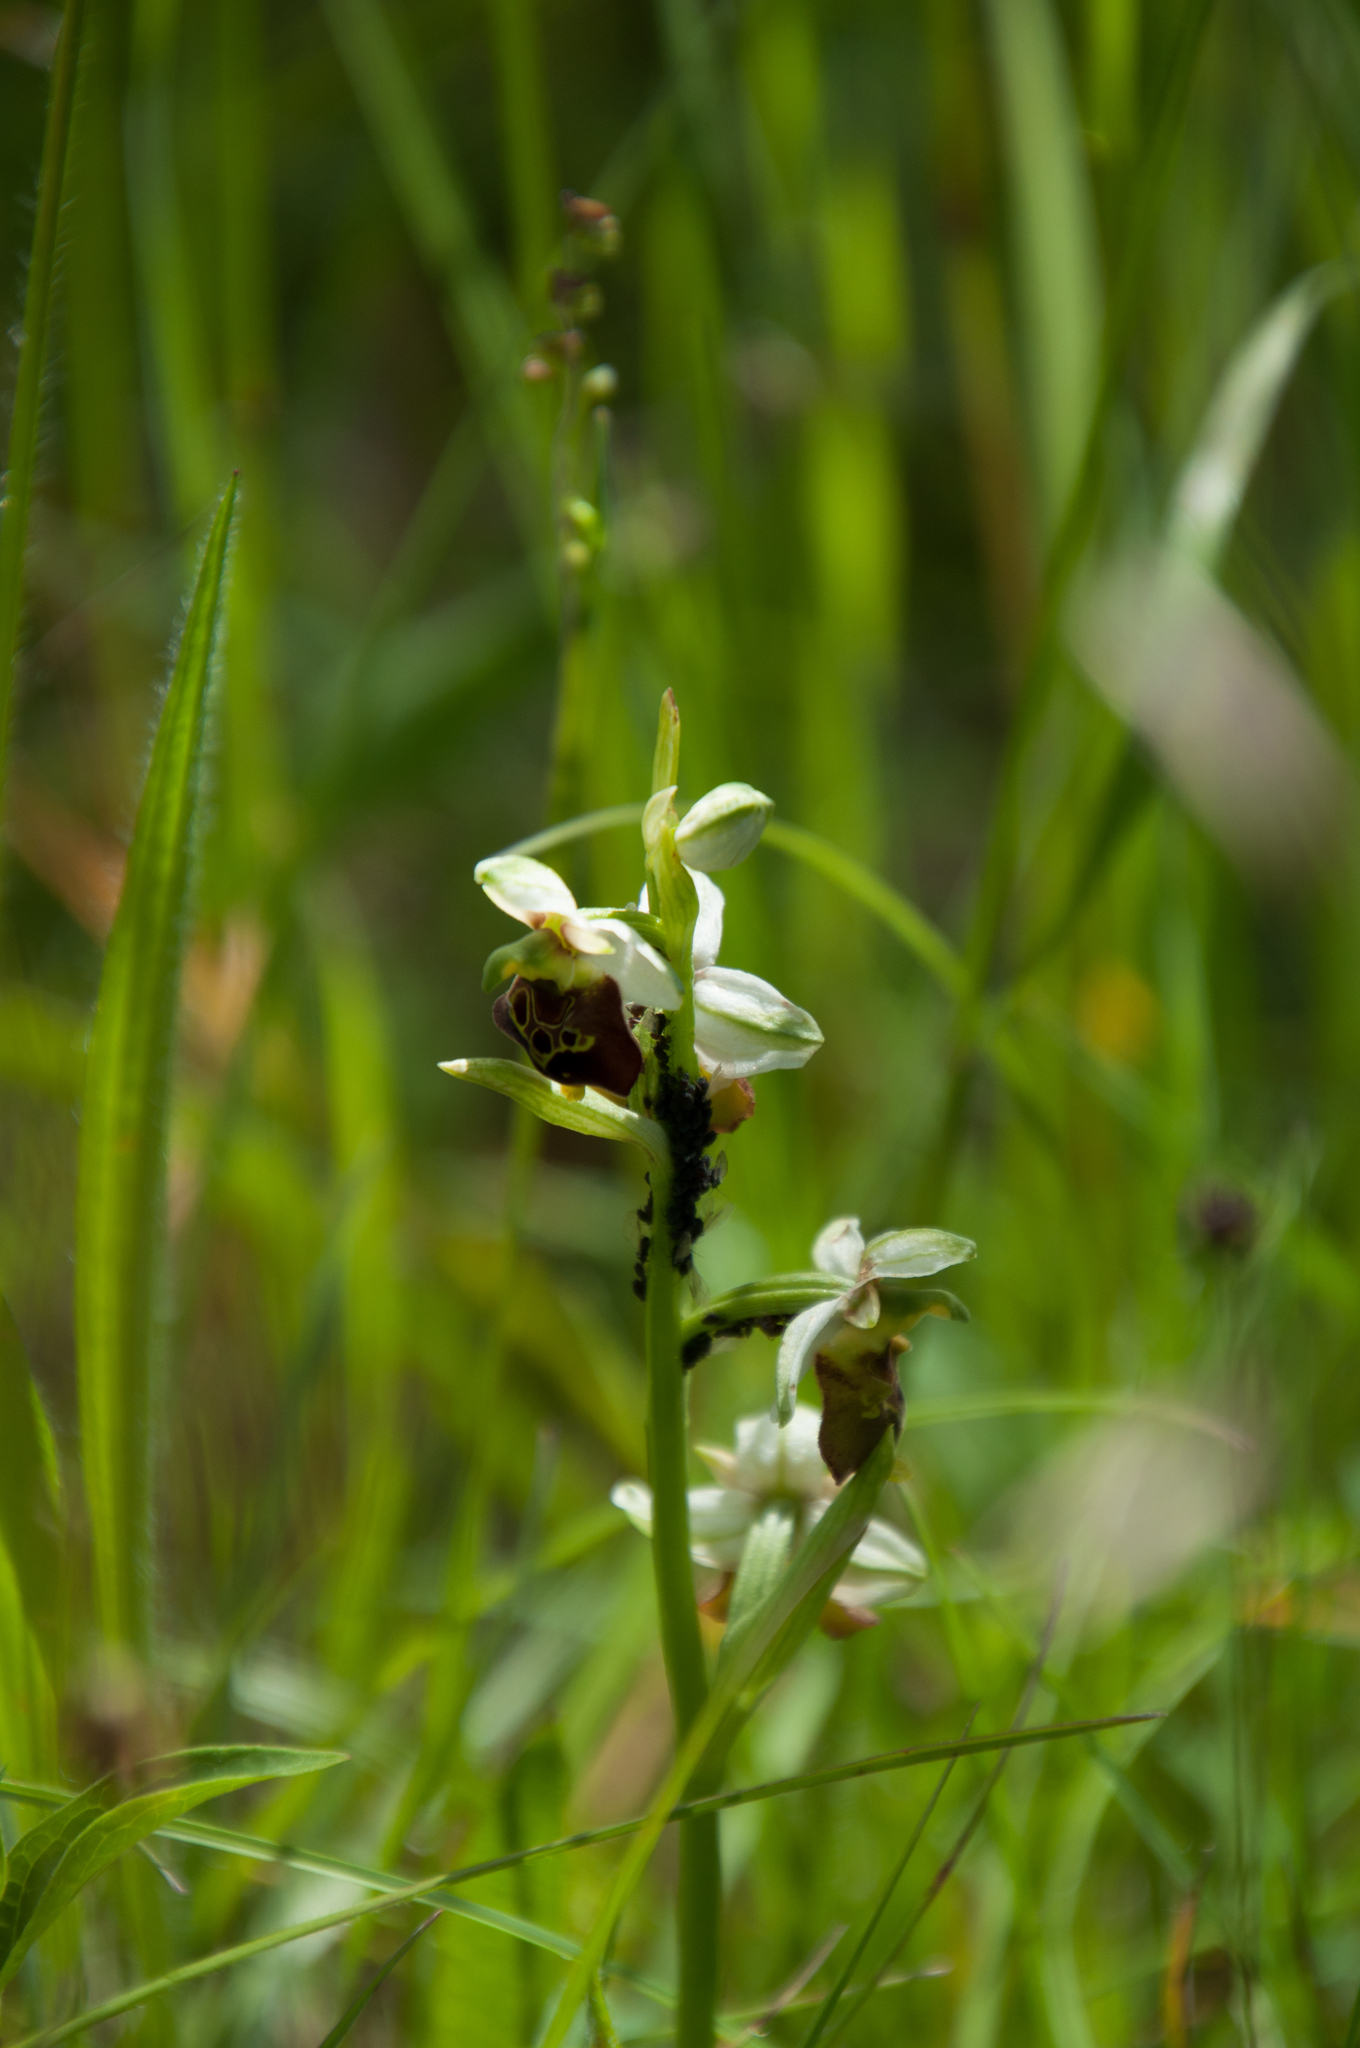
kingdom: Plantae
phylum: Tracheophyta
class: Liliopsida
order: Asparagales
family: Orchidaceae
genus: Ophrys
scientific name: Ophrys holosericea
